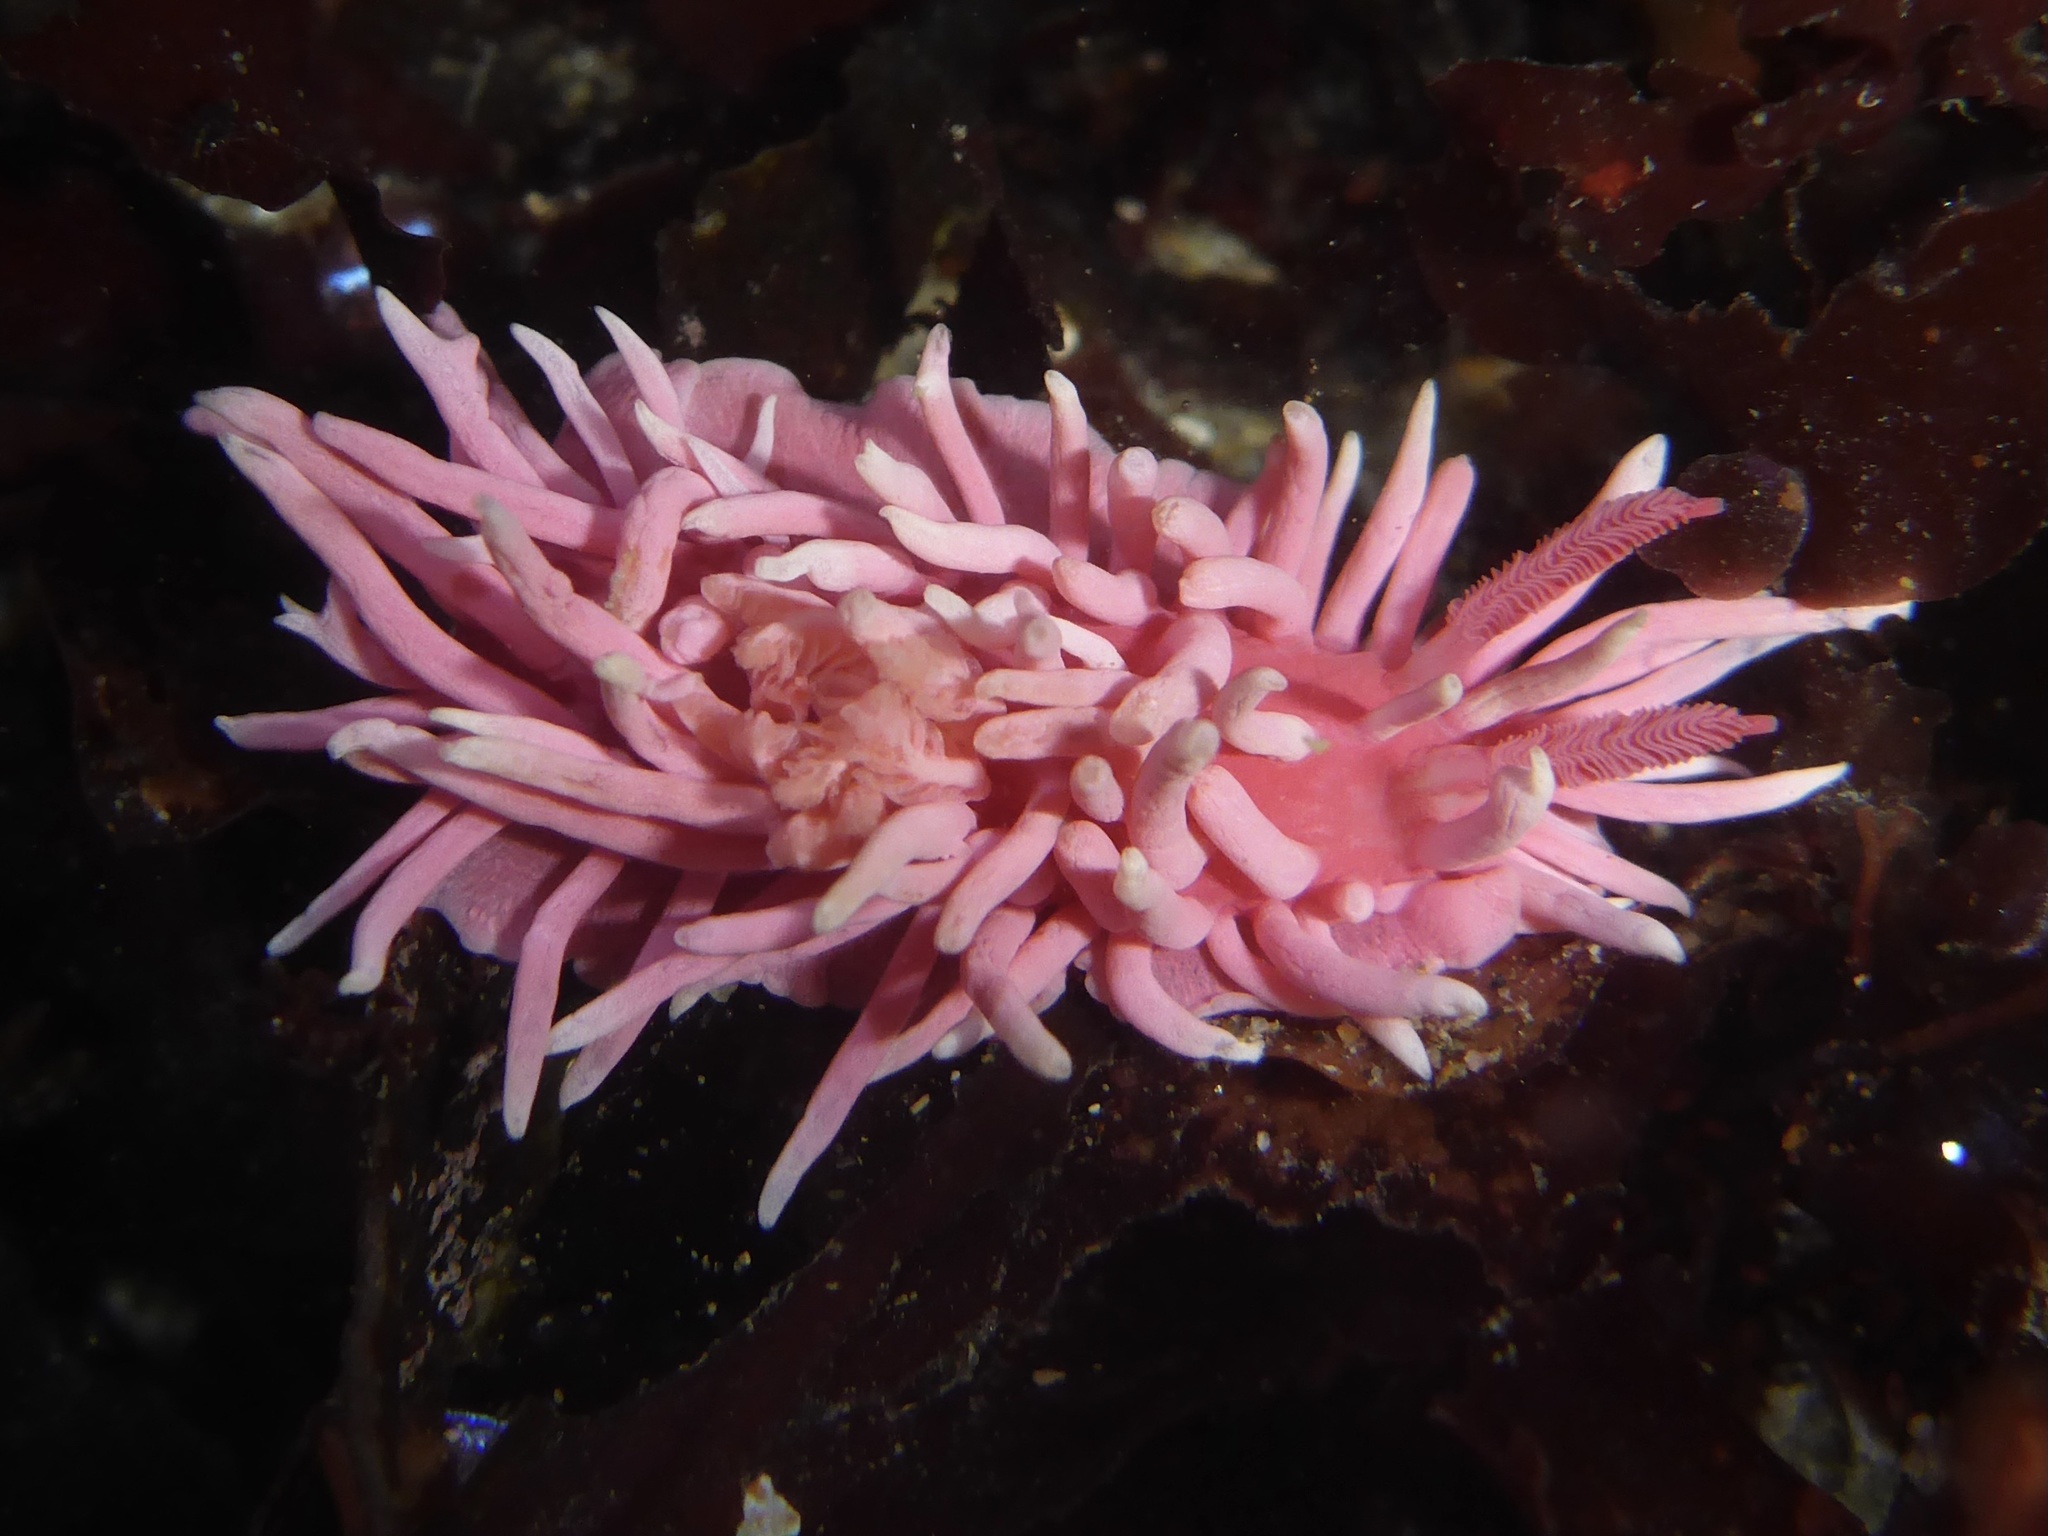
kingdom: Animalia
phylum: Mollusca
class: Gastropoda
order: Nudibranchia
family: Goniodorididae
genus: Okenia
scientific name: Okenia
